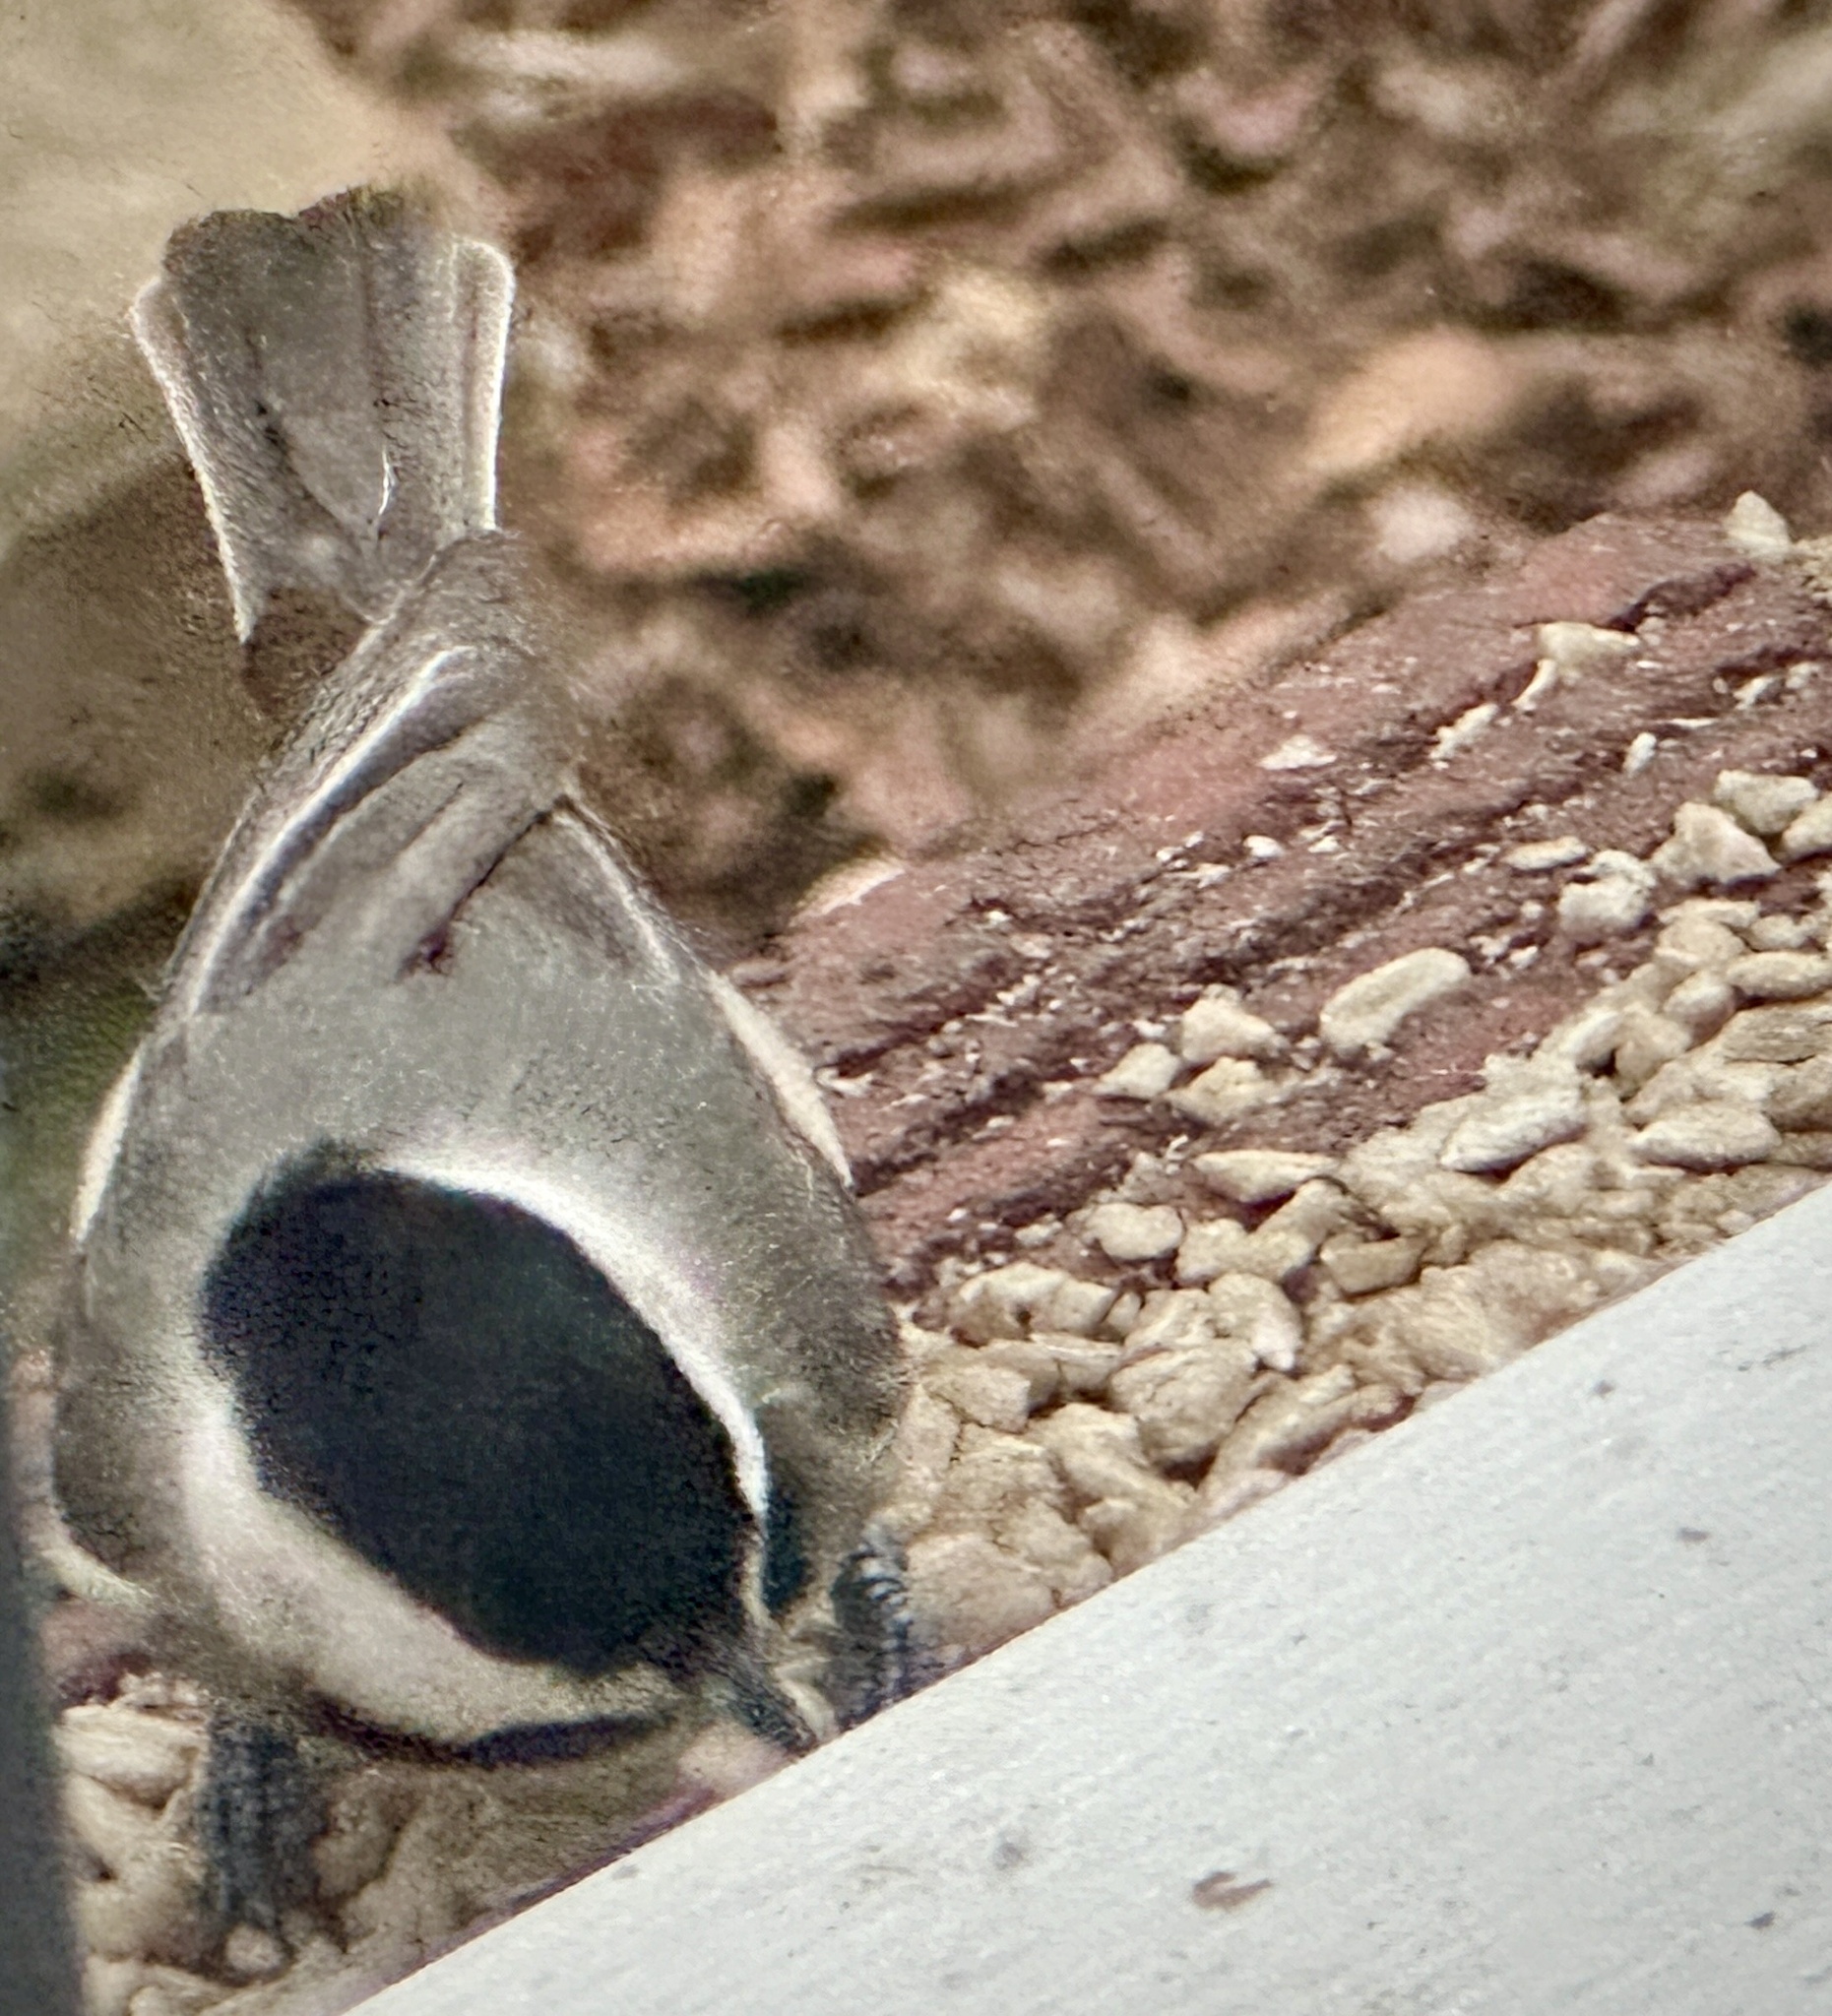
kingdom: Animalia
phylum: Chordata
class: Aves
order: Passeriformes
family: Paridae
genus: Poecile
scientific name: Poecile carolinensis
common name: Carolina chickadee
